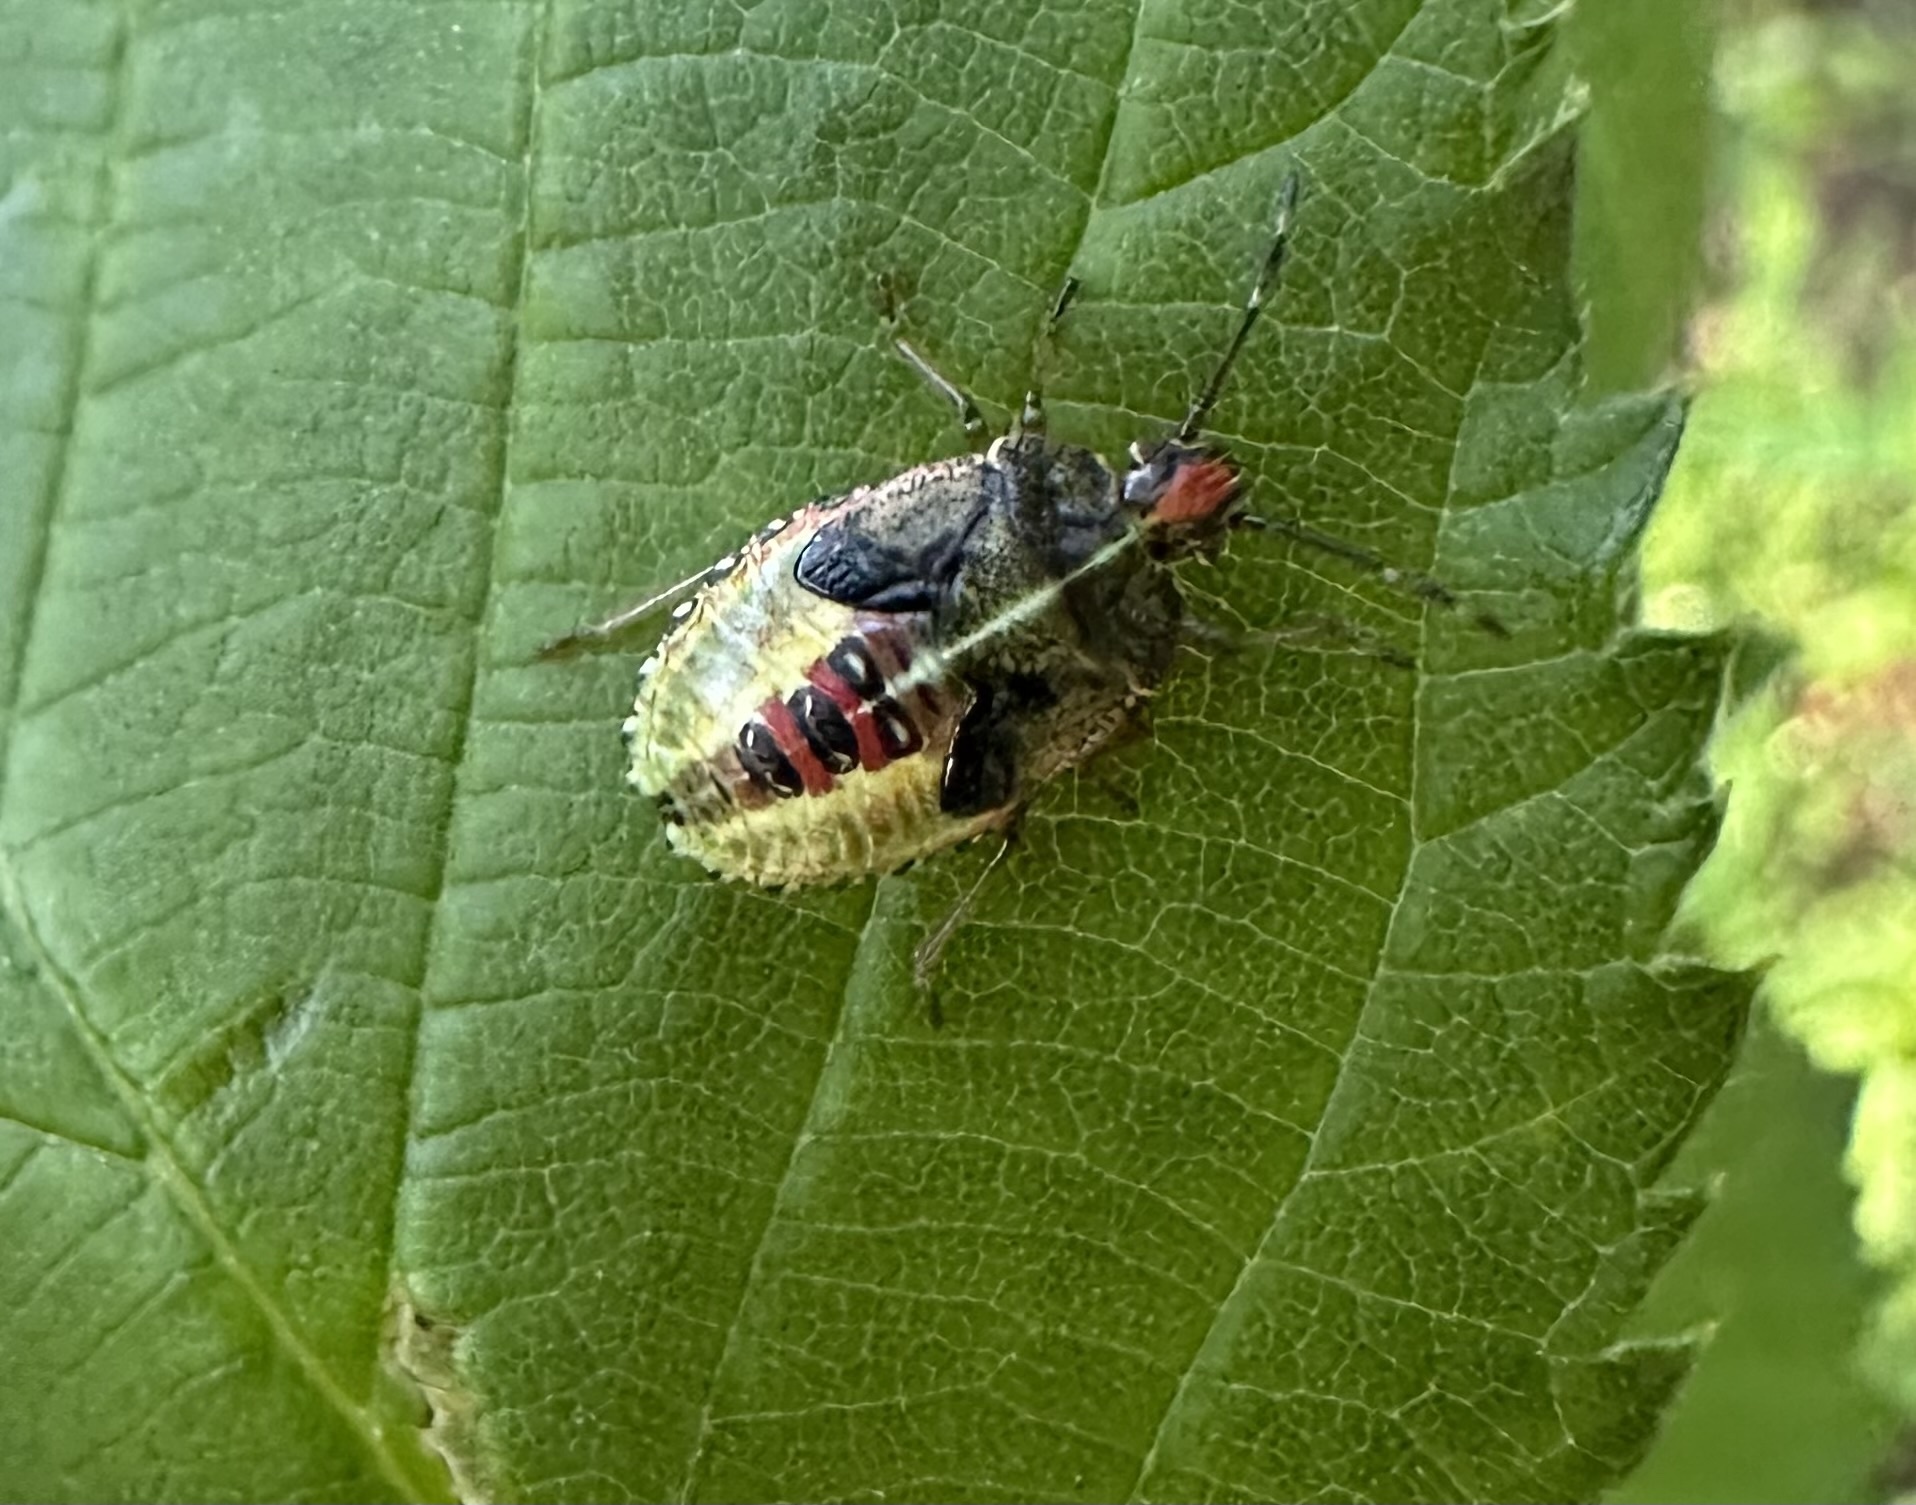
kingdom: Animalia
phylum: Arthropoda
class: Insecta
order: Hemiptera
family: Acanthosomatidae
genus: Sinopla
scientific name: Sinopla perpunctatus
